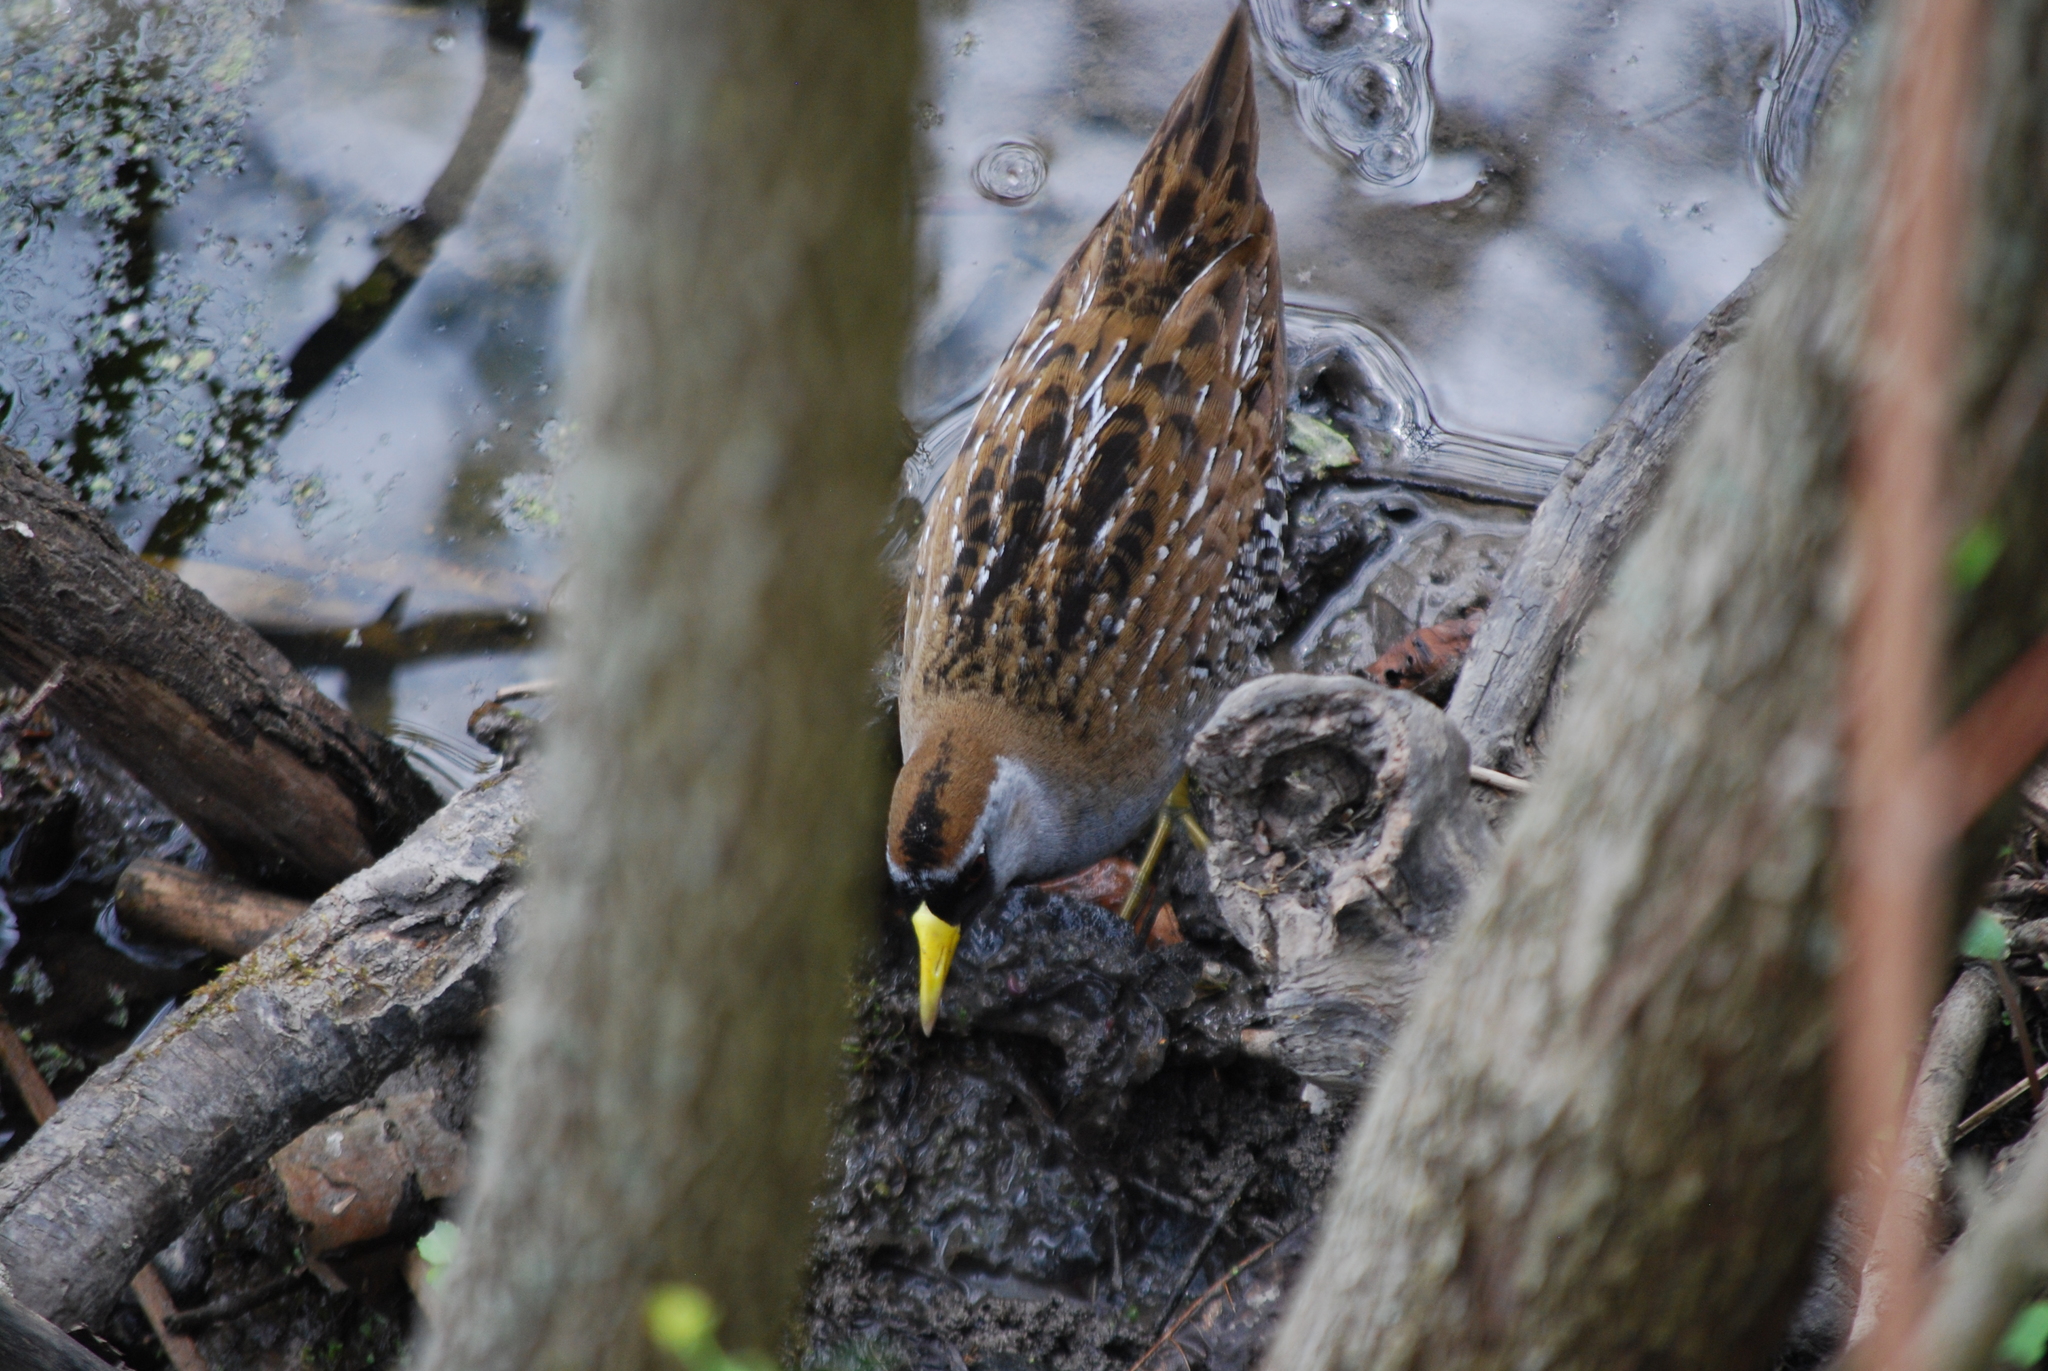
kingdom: Animalia
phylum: Chordata
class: Aves
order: Gruiformes
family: Rallidae
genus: Porzana
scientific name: Porzana carolina
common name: Sora
